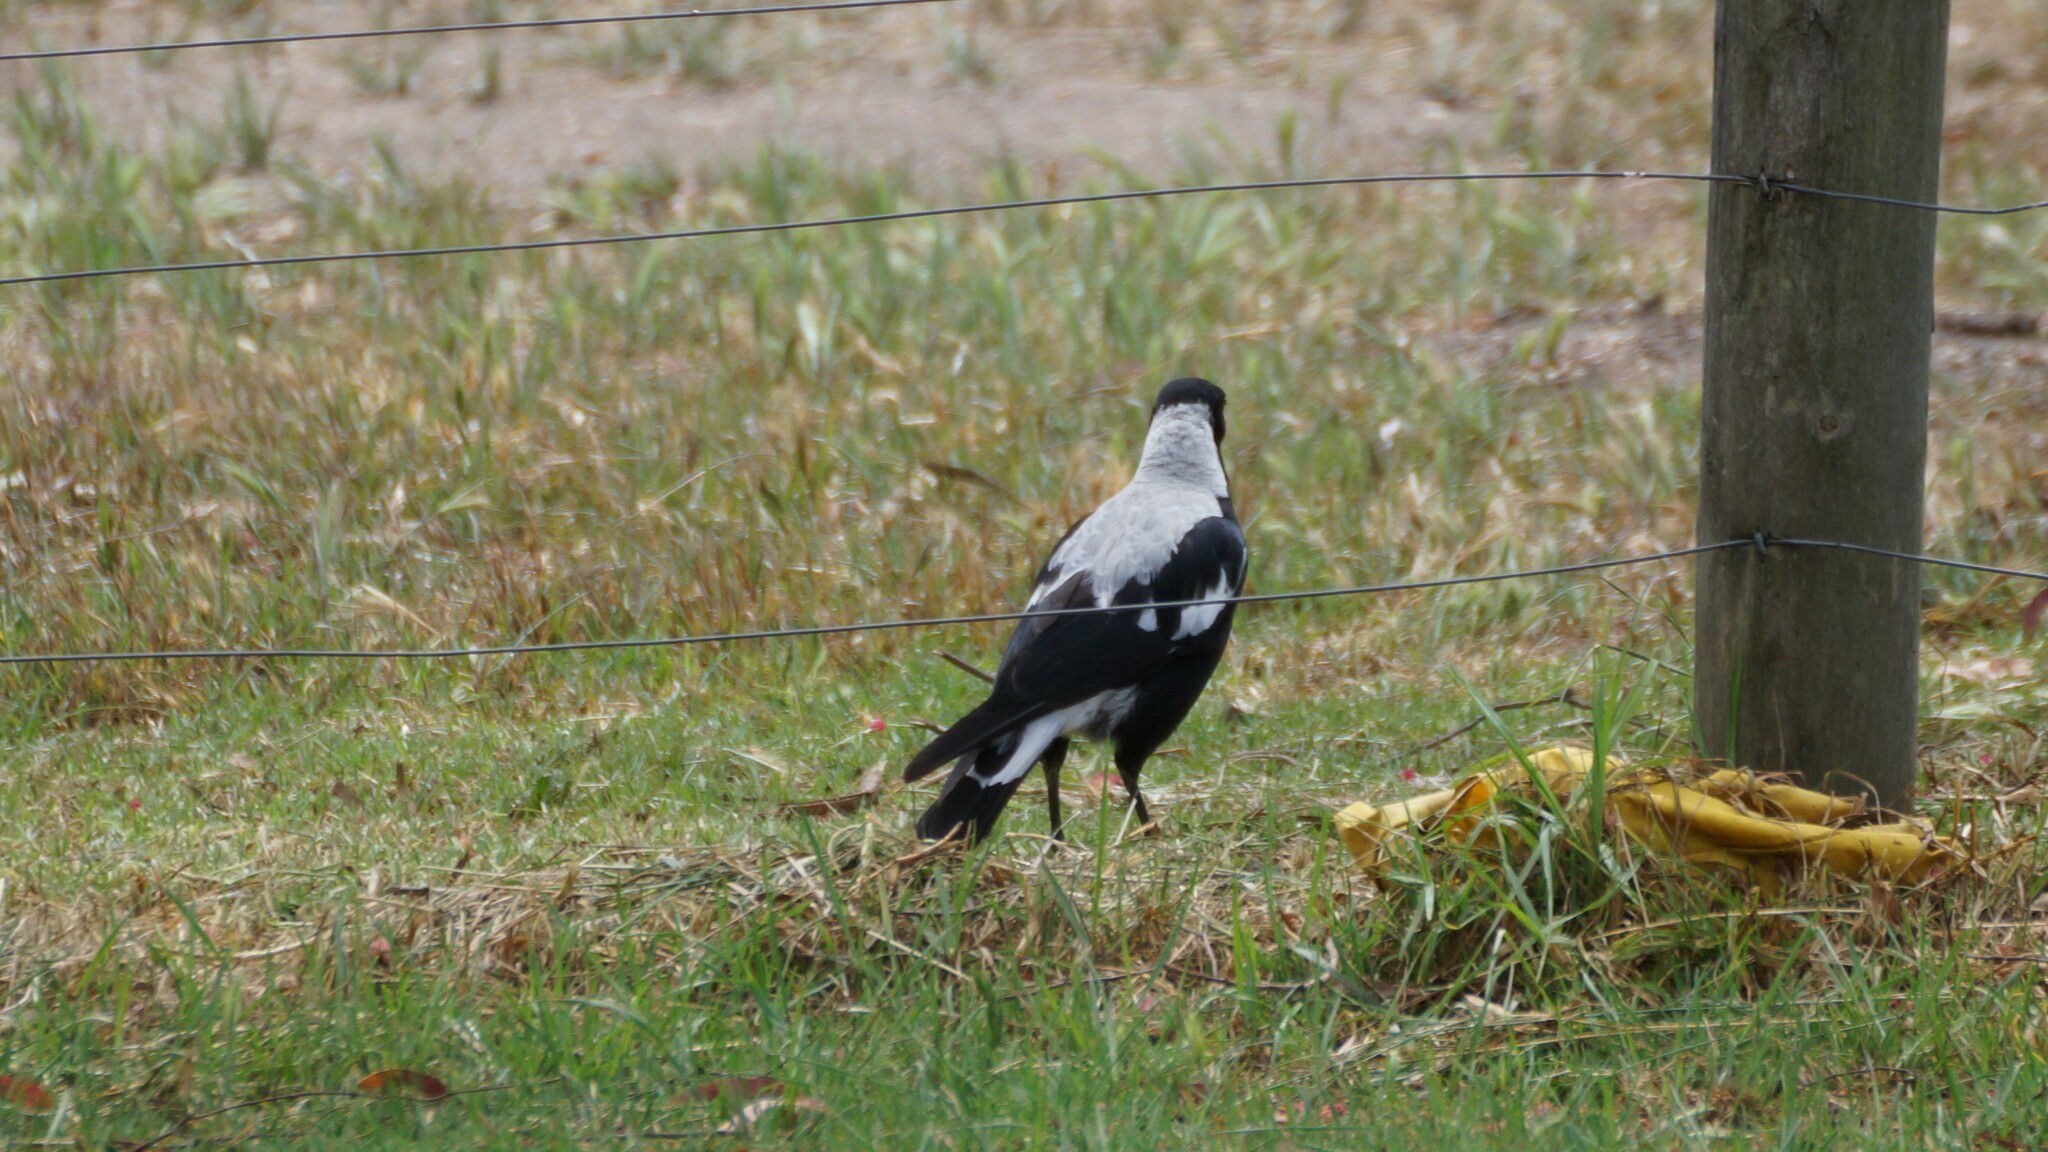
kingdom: Animalia
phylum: Chordata
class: Aves
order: Passeriformes
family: Cracticidae
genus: Gymnorhina
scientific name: Gymnorhina tibicen
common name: Australian magpie
